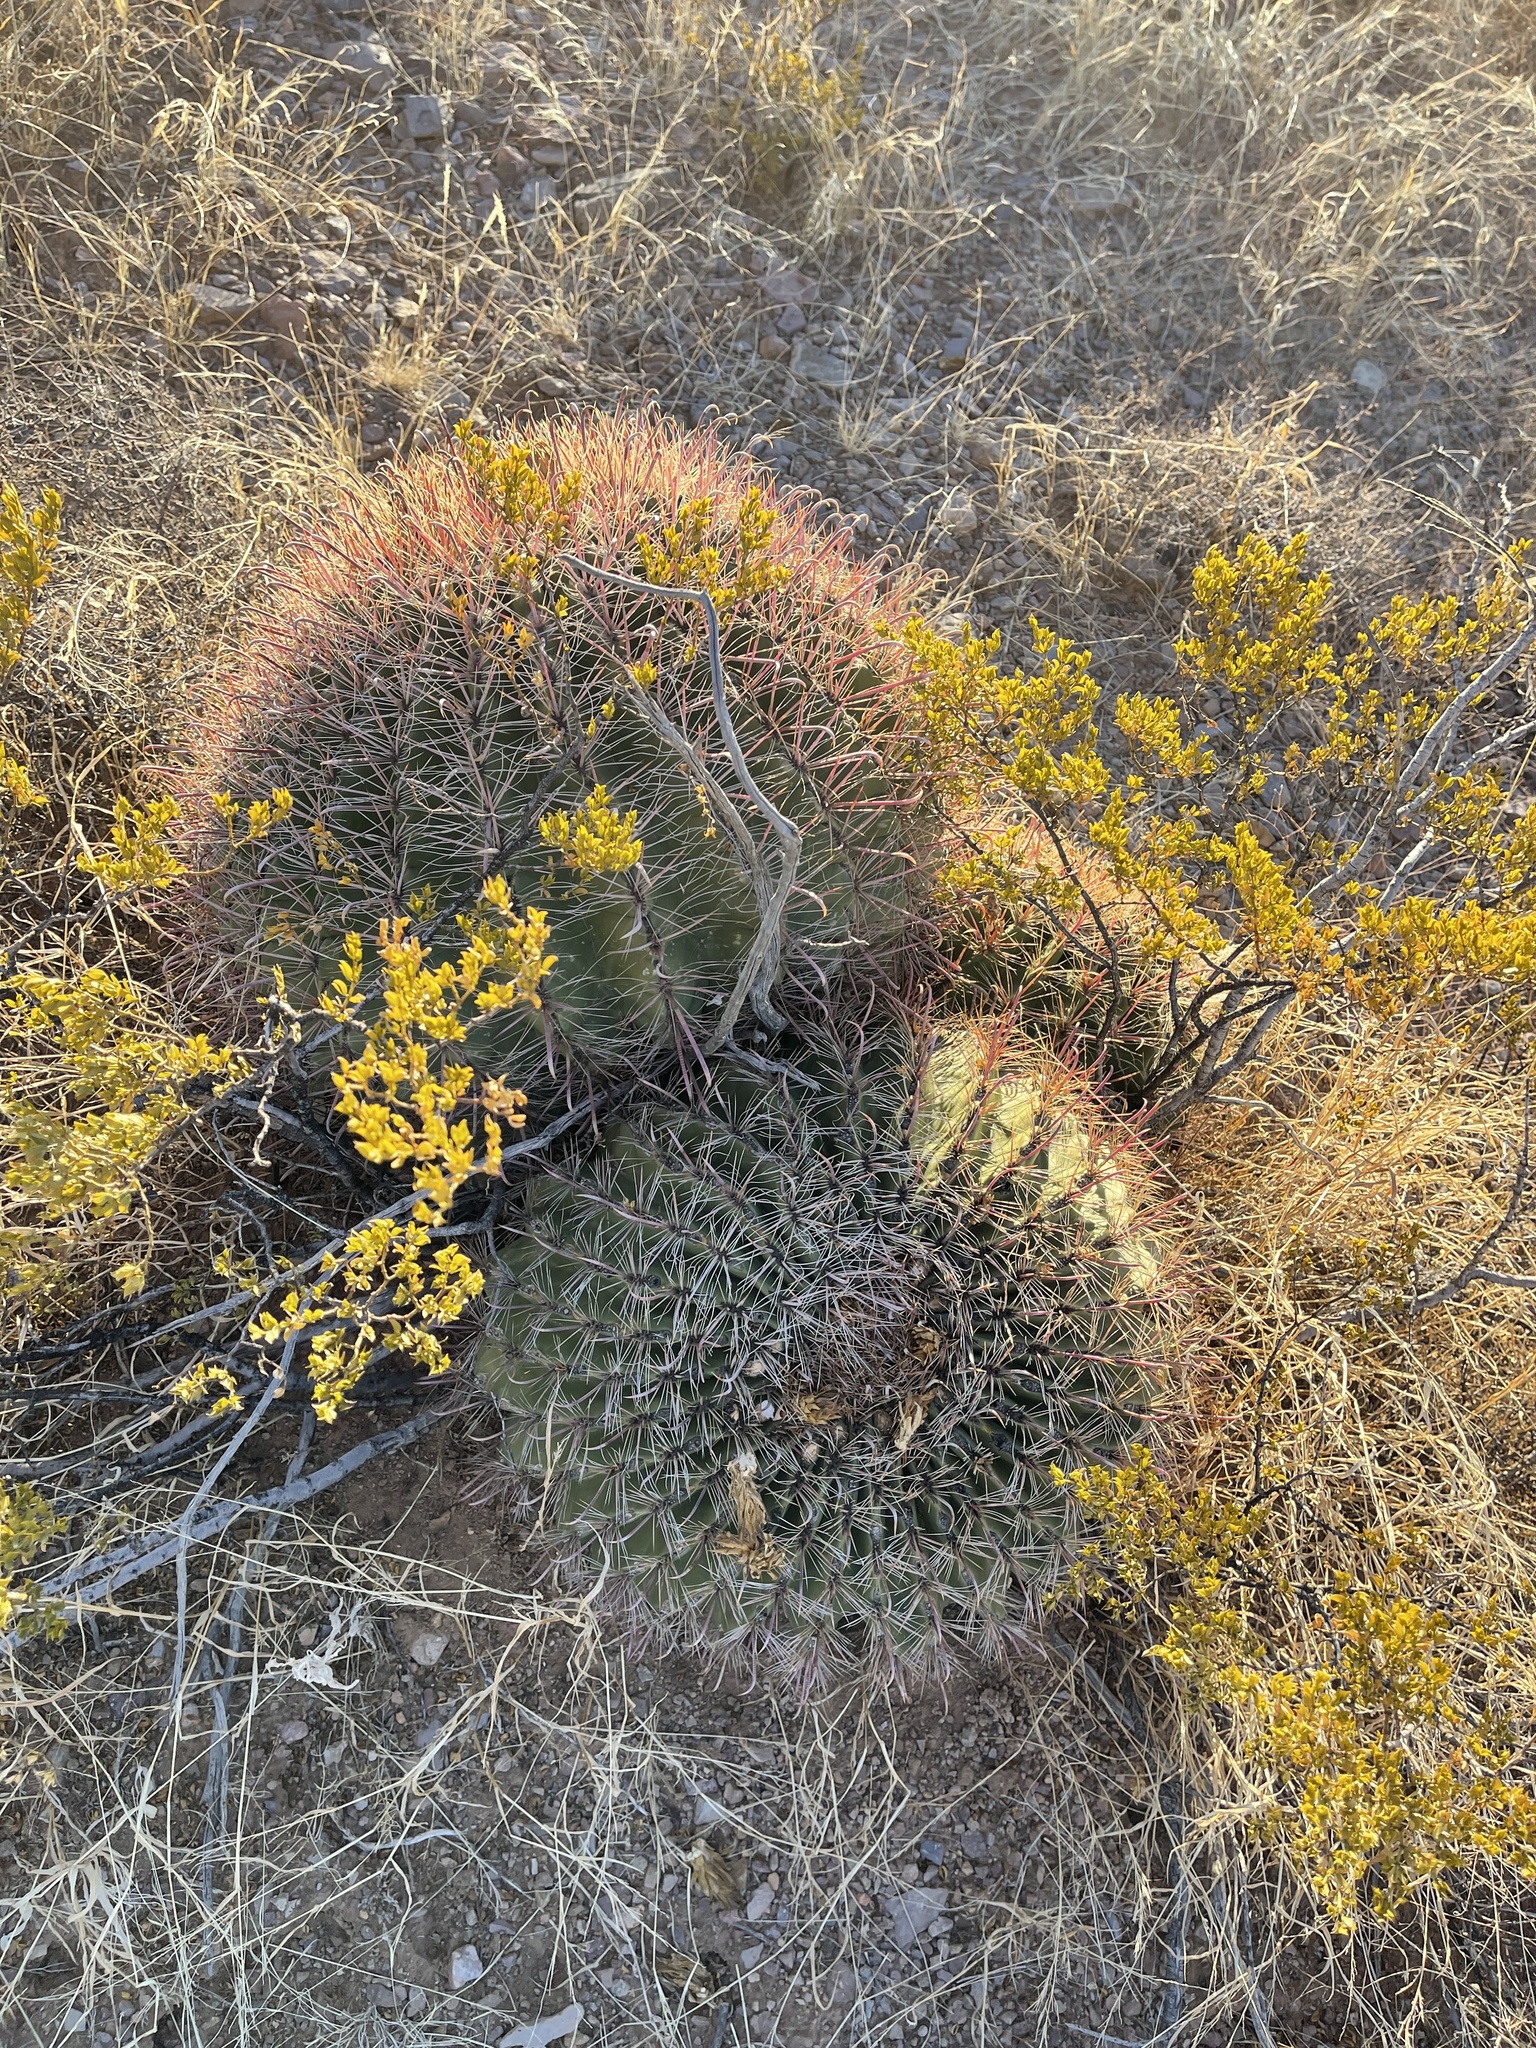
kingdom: Plantae
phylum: Tracheophyta
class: Magnoliopsida
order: Caryophyllales
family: Cactaceae
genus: Ferocactus
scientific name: Ferocactus wislizeni
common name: Candy barrel cactus
